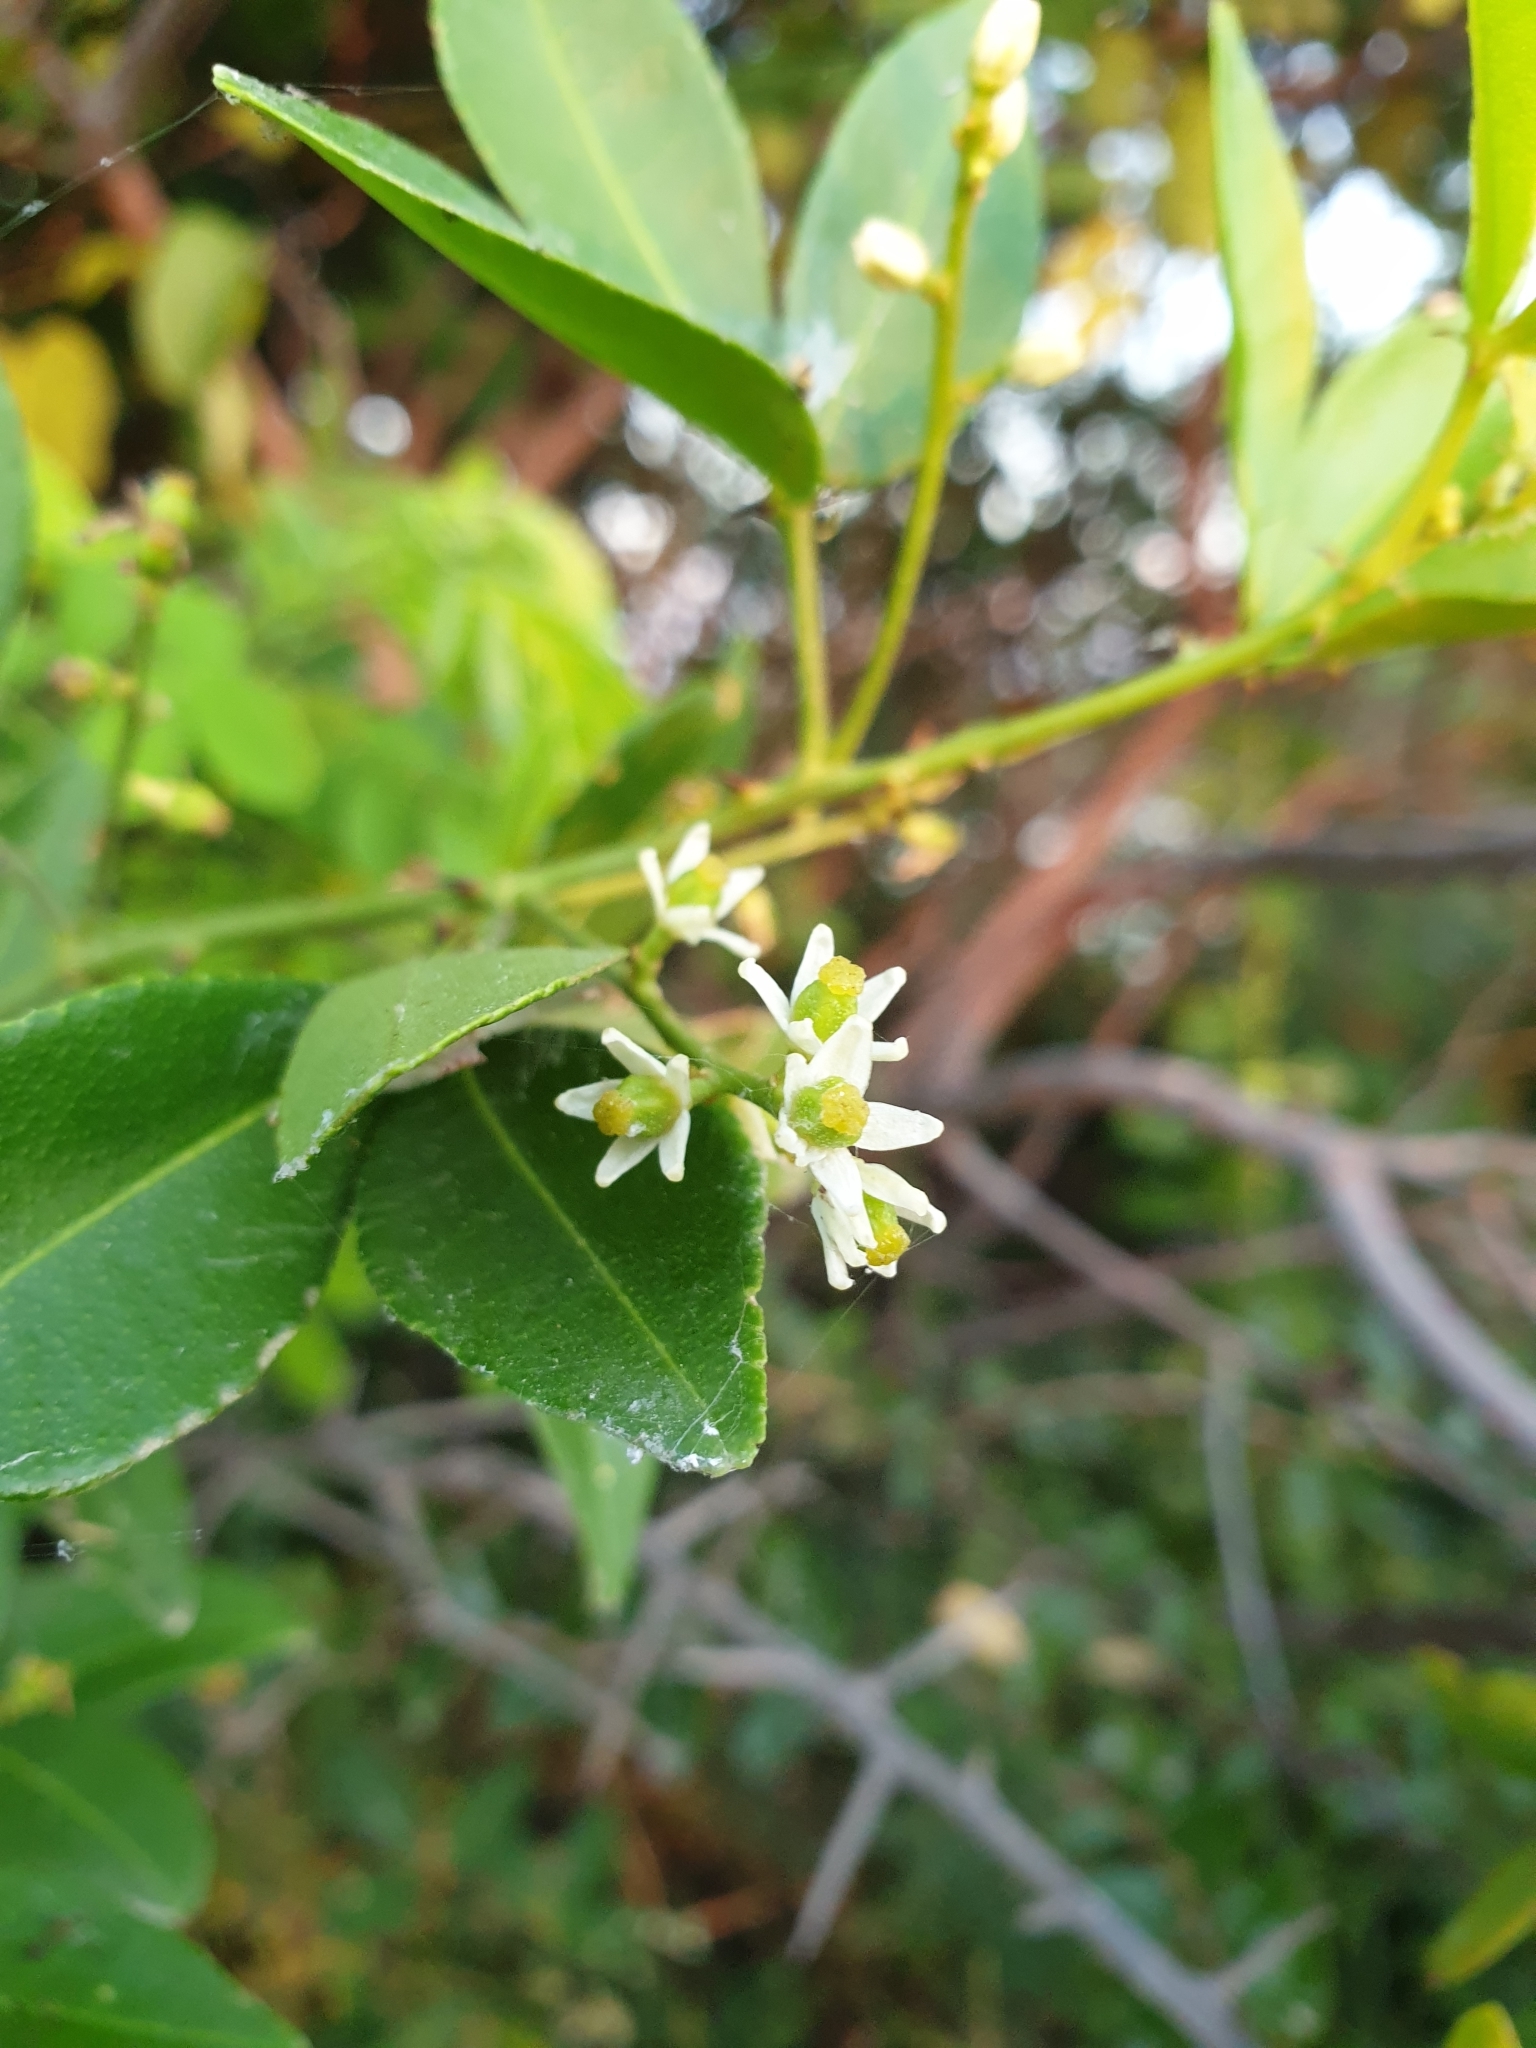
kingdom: Plantae
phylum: Tracheophyta
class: Magnoliopsida
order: Sapindales
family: Rutaceae
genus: Zanthoxylum
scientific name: Zanthoxylum asiaticum
